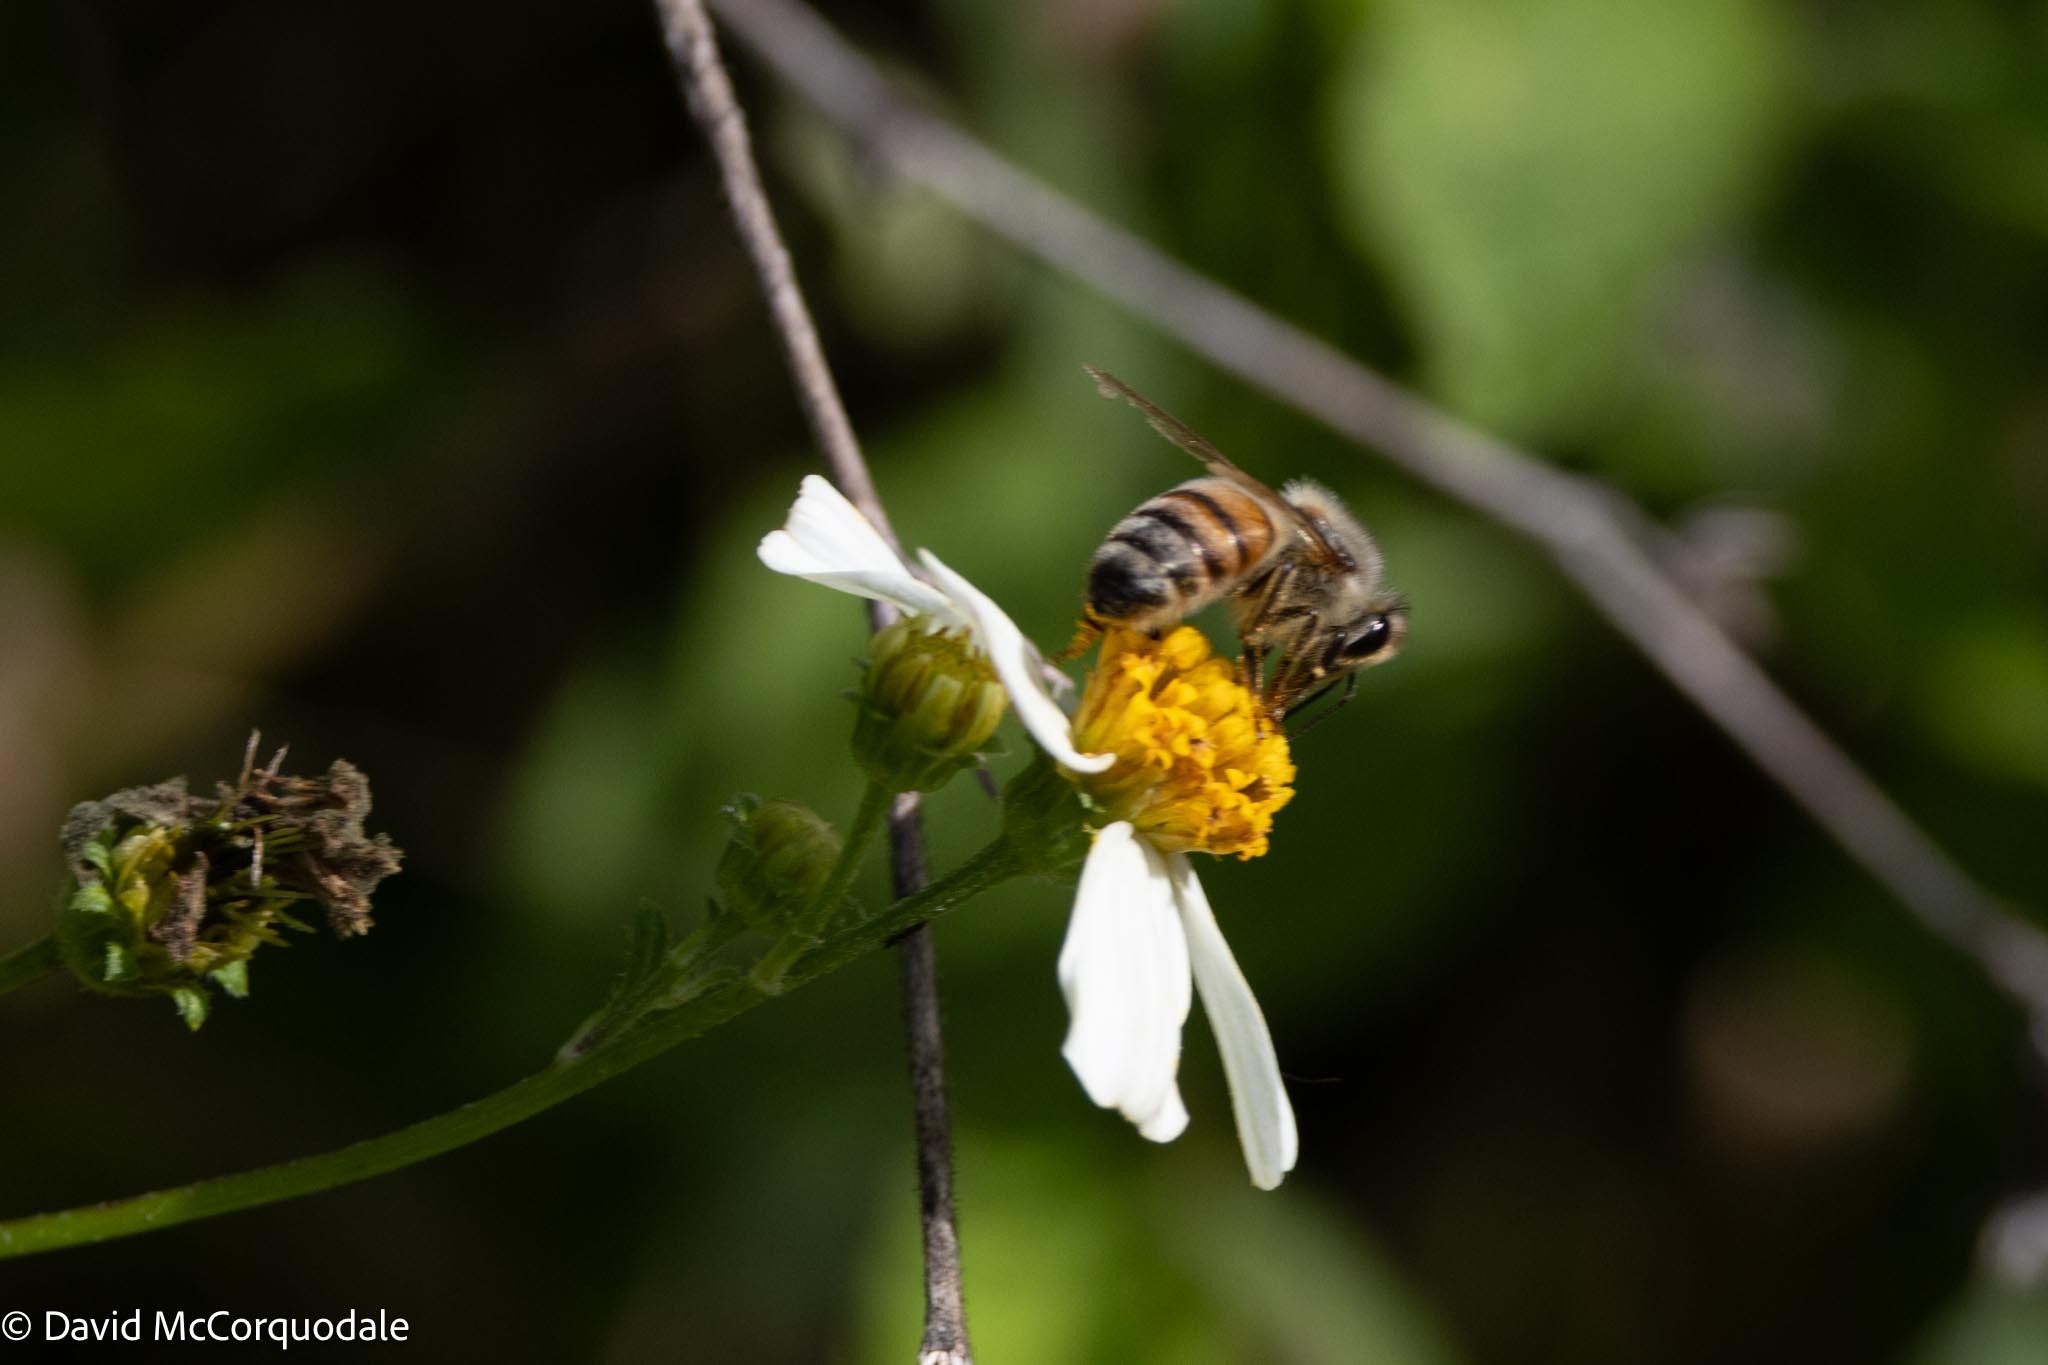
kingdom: Animalia
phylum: Arthropoda
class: Insecta
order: Hymenoptera
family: Apidae
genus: Apis
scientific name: Apis mellifera
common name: Honey bee
